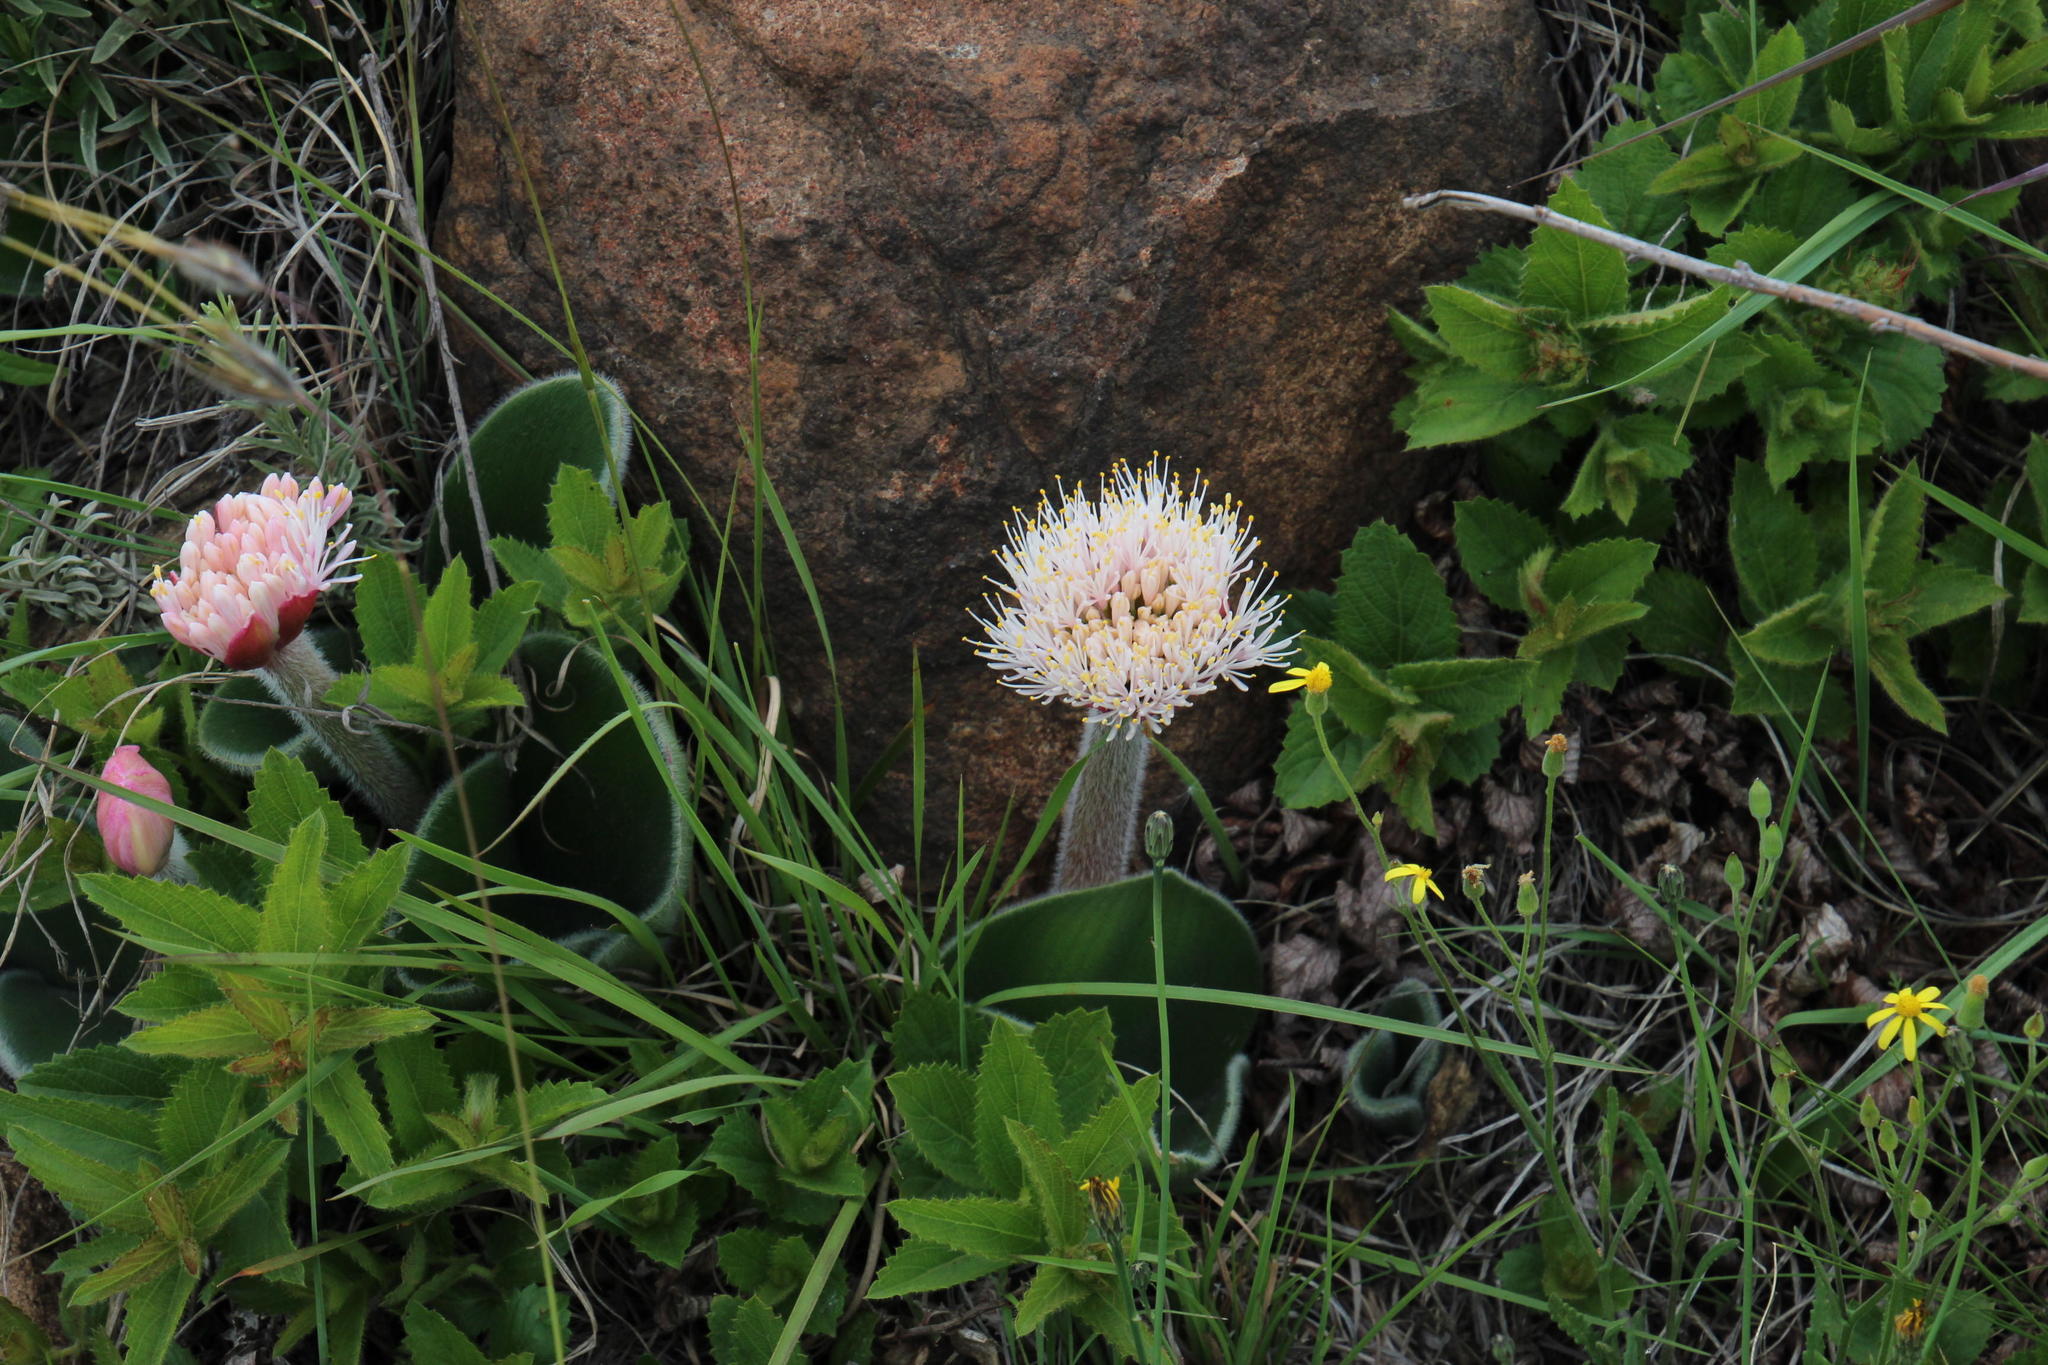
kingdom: Plantae
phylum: Tracheophyta
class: Liliopsida
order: Asparagales
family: Amaryllidaceae
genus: Haemanthus
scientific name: Haemanthus humilis
